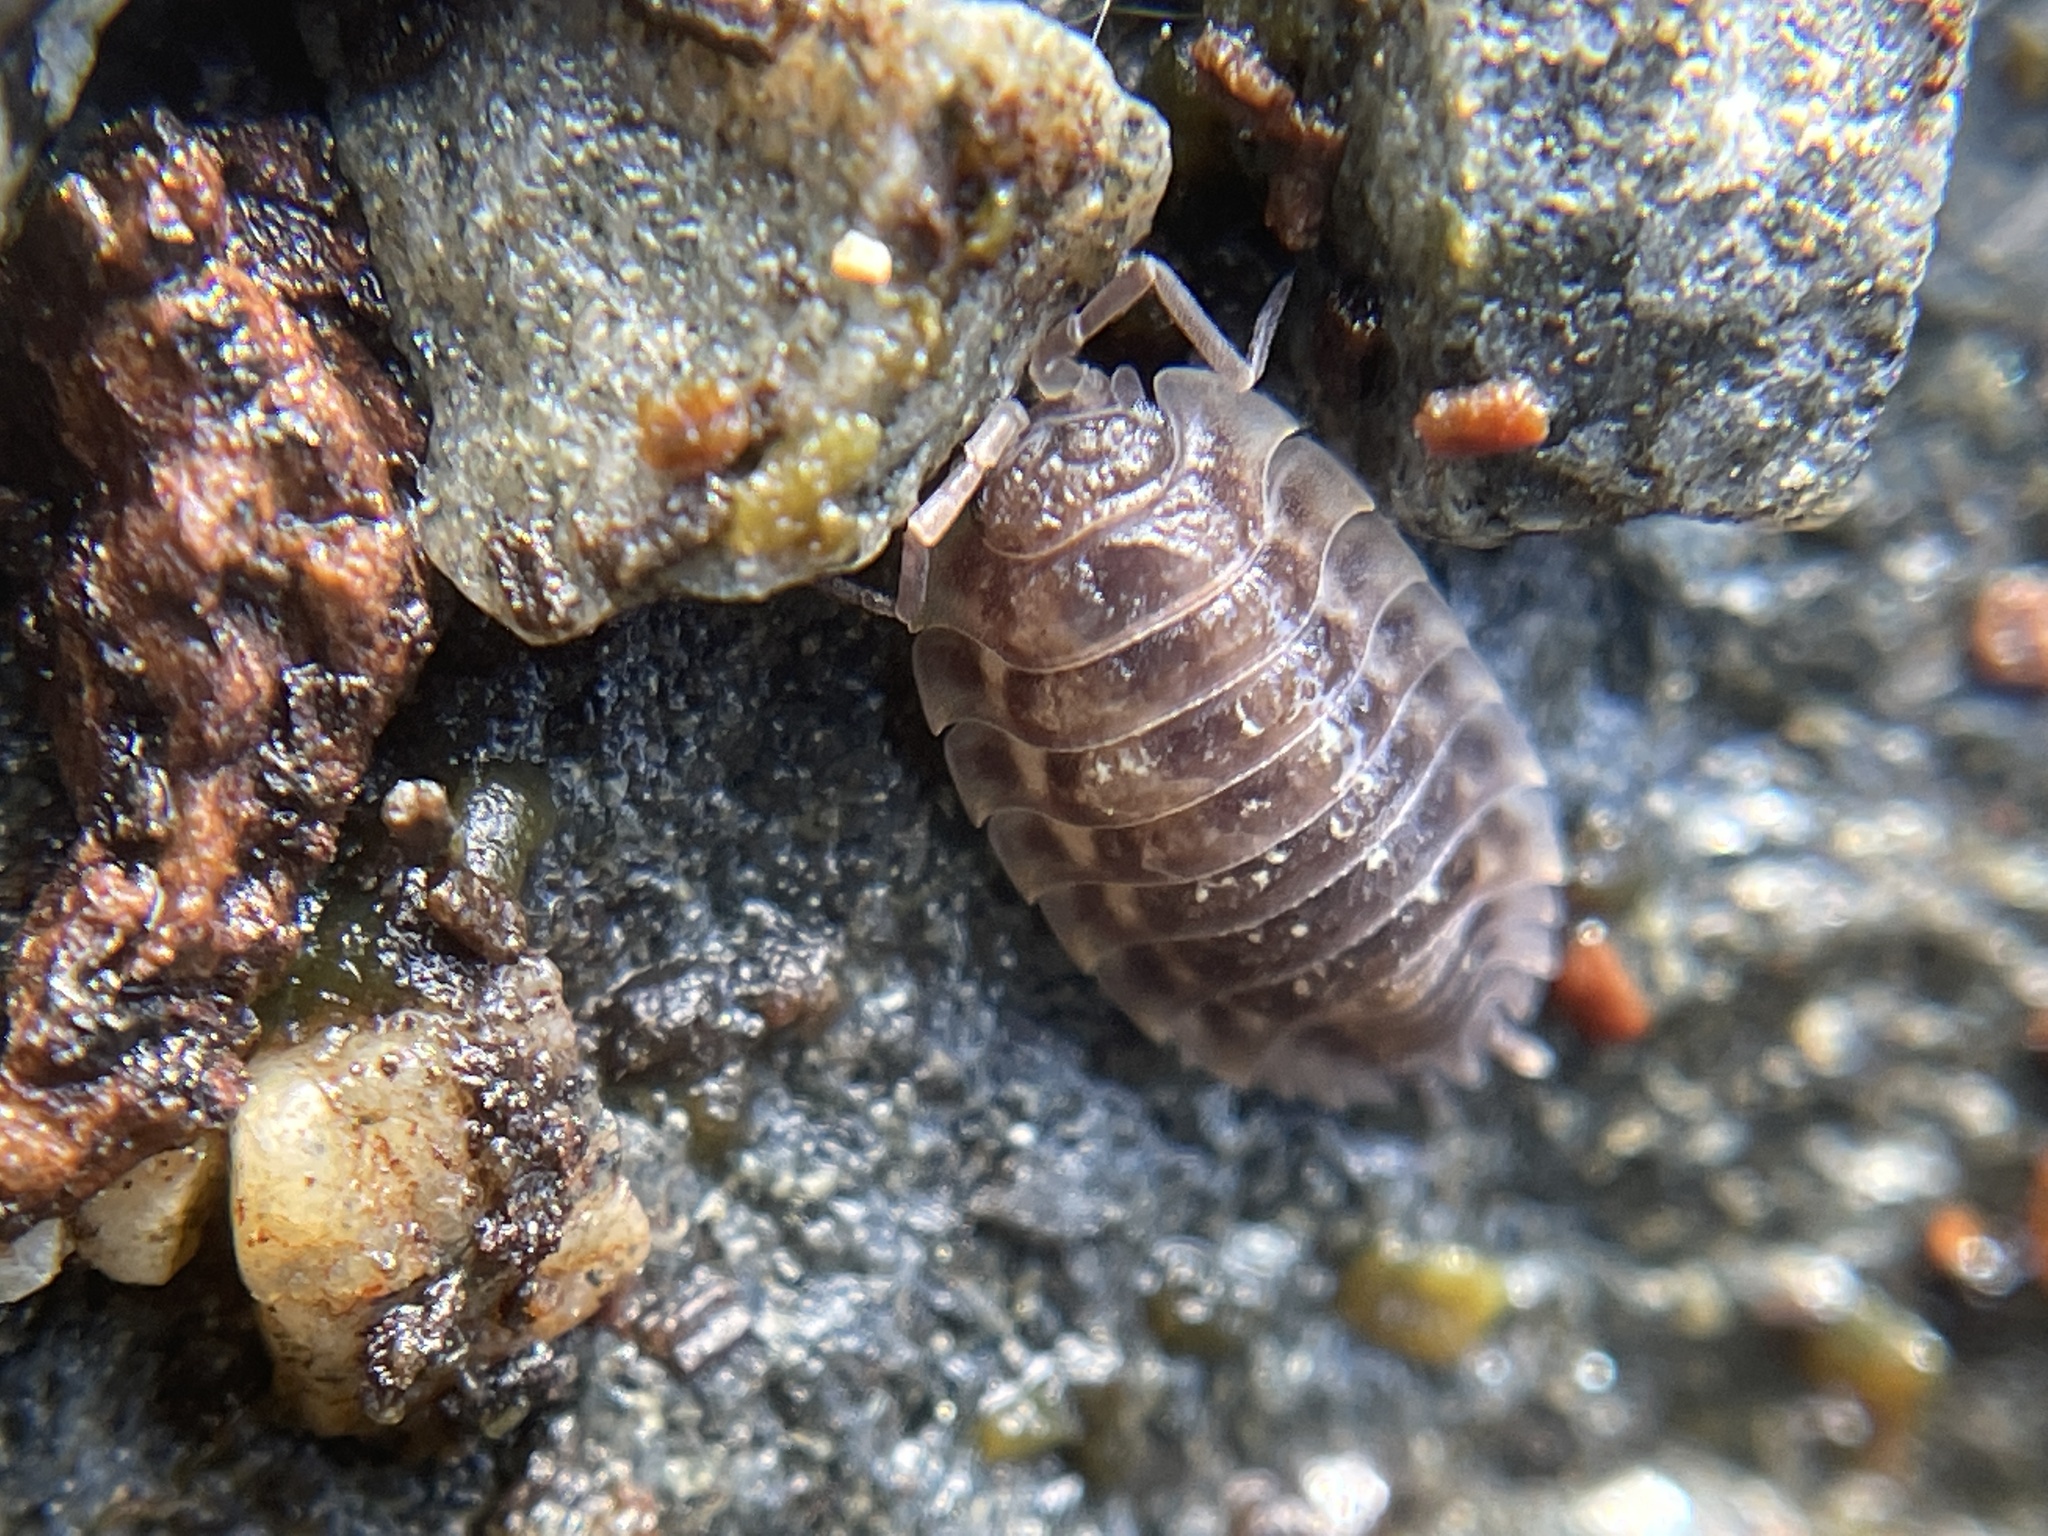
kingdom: Animalia
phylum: Arthropoda
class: Malacostraca
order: Isopoda
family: Oniscidae
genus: Oniscus
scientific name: Oniscus asellus
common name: Common shiny woodlouse
